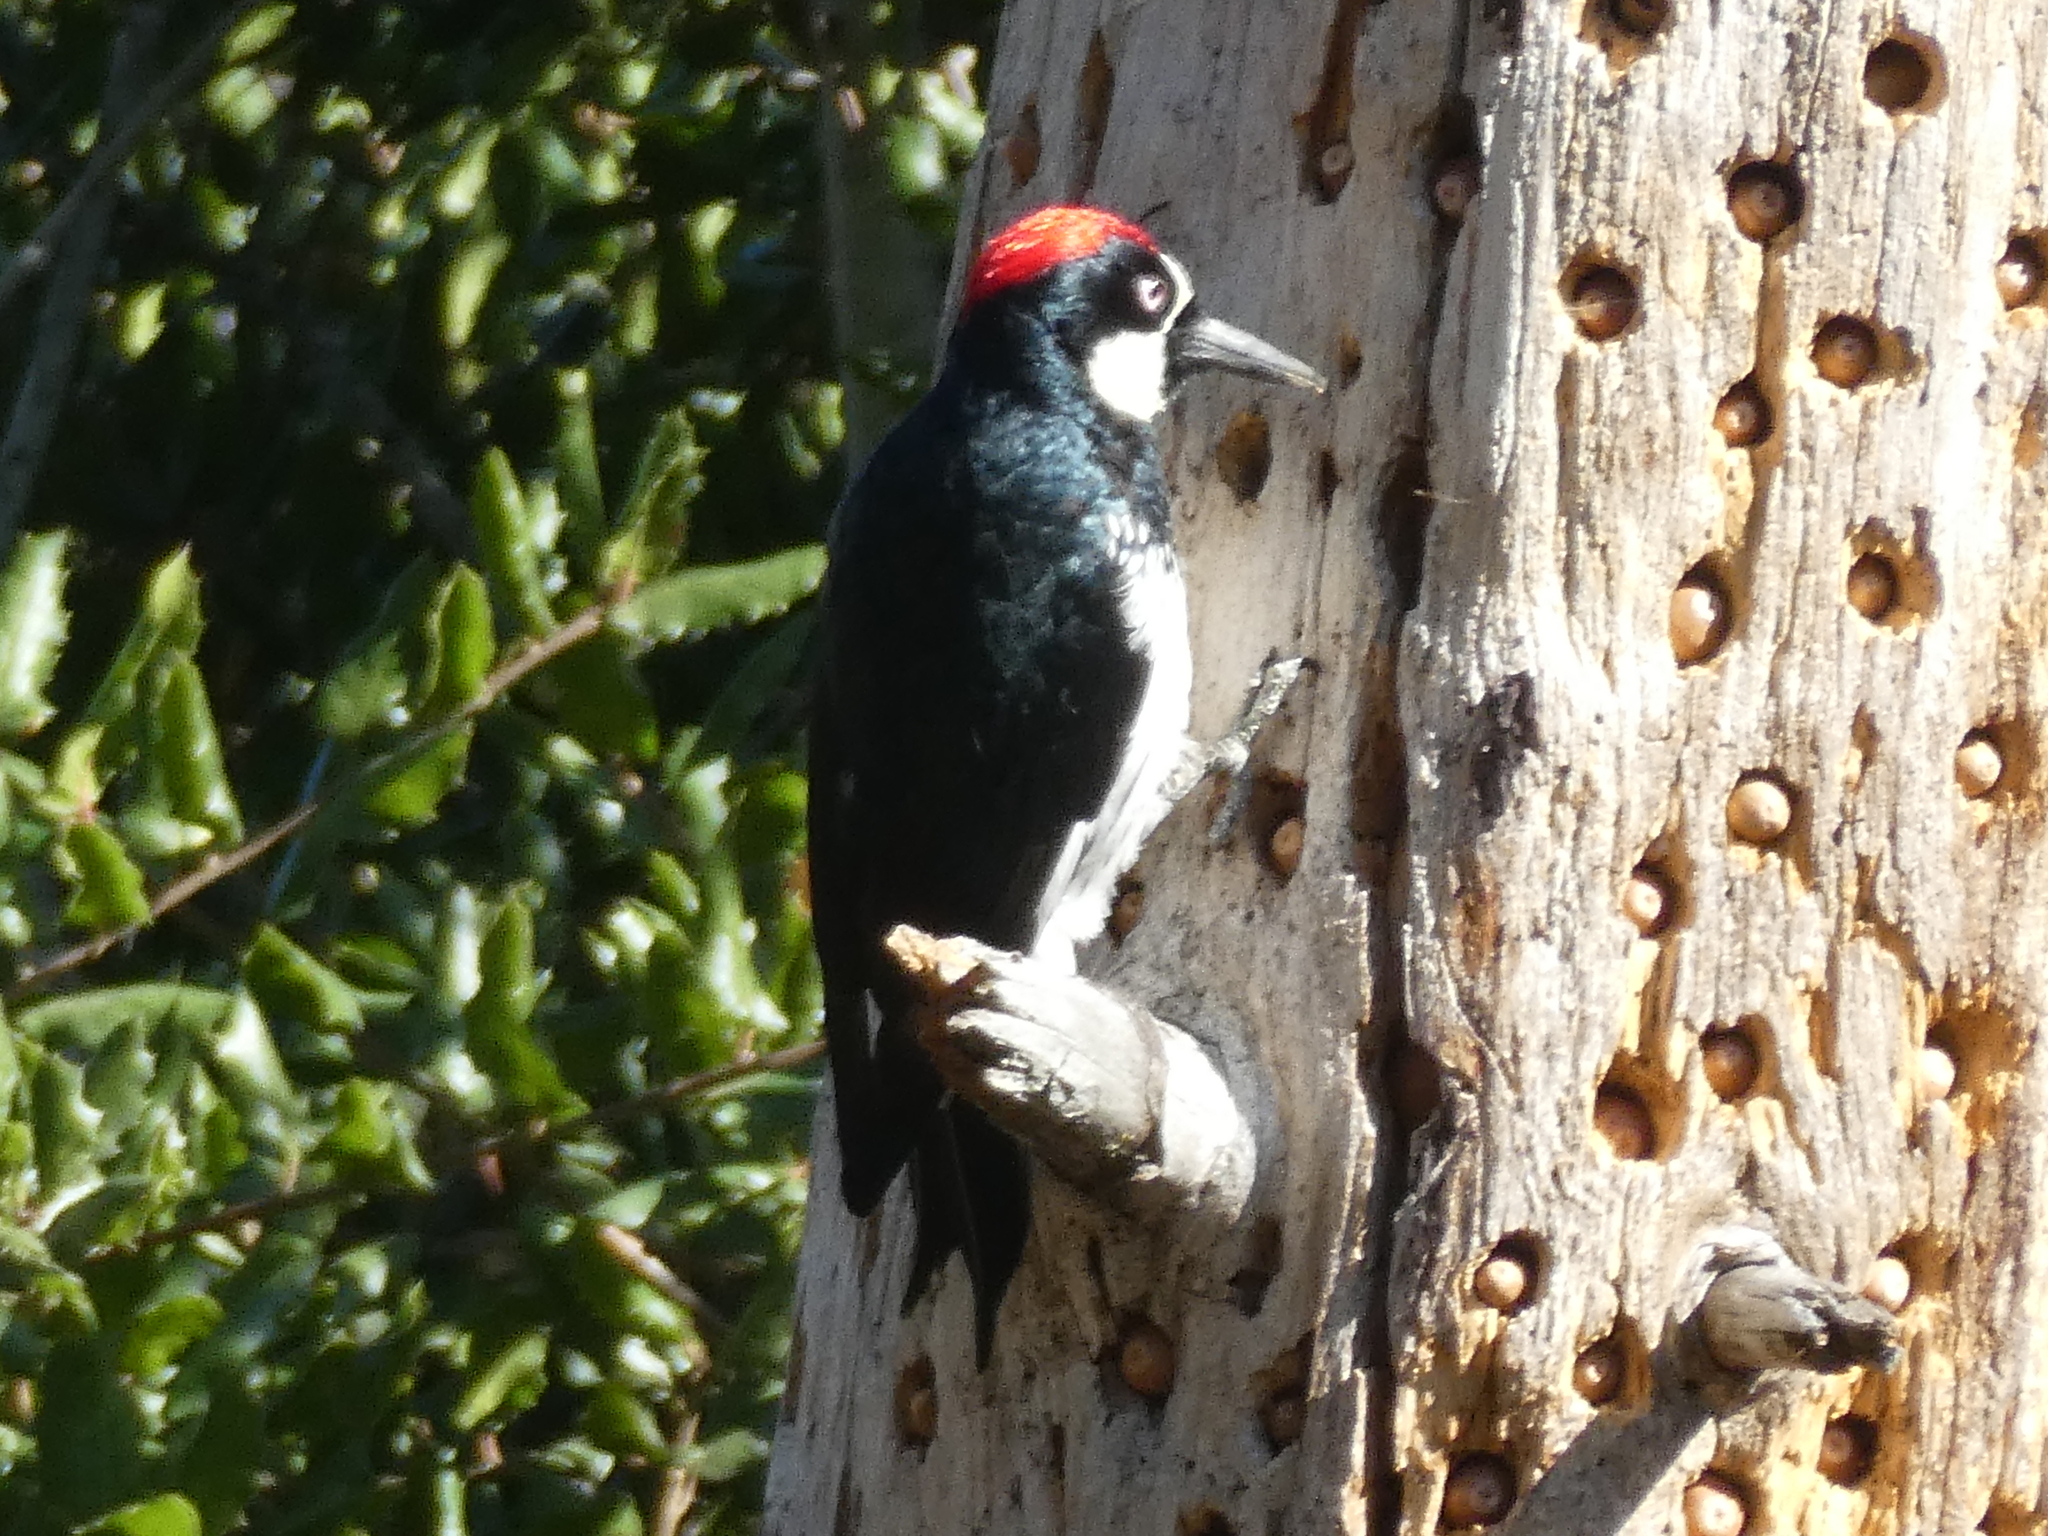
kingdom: Animalia
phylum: Chordata
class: Aves
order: Piciformes
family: Picidae
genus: Melanerpes
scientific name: Melanerpes formicivorus
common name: Acorn woodpecker
